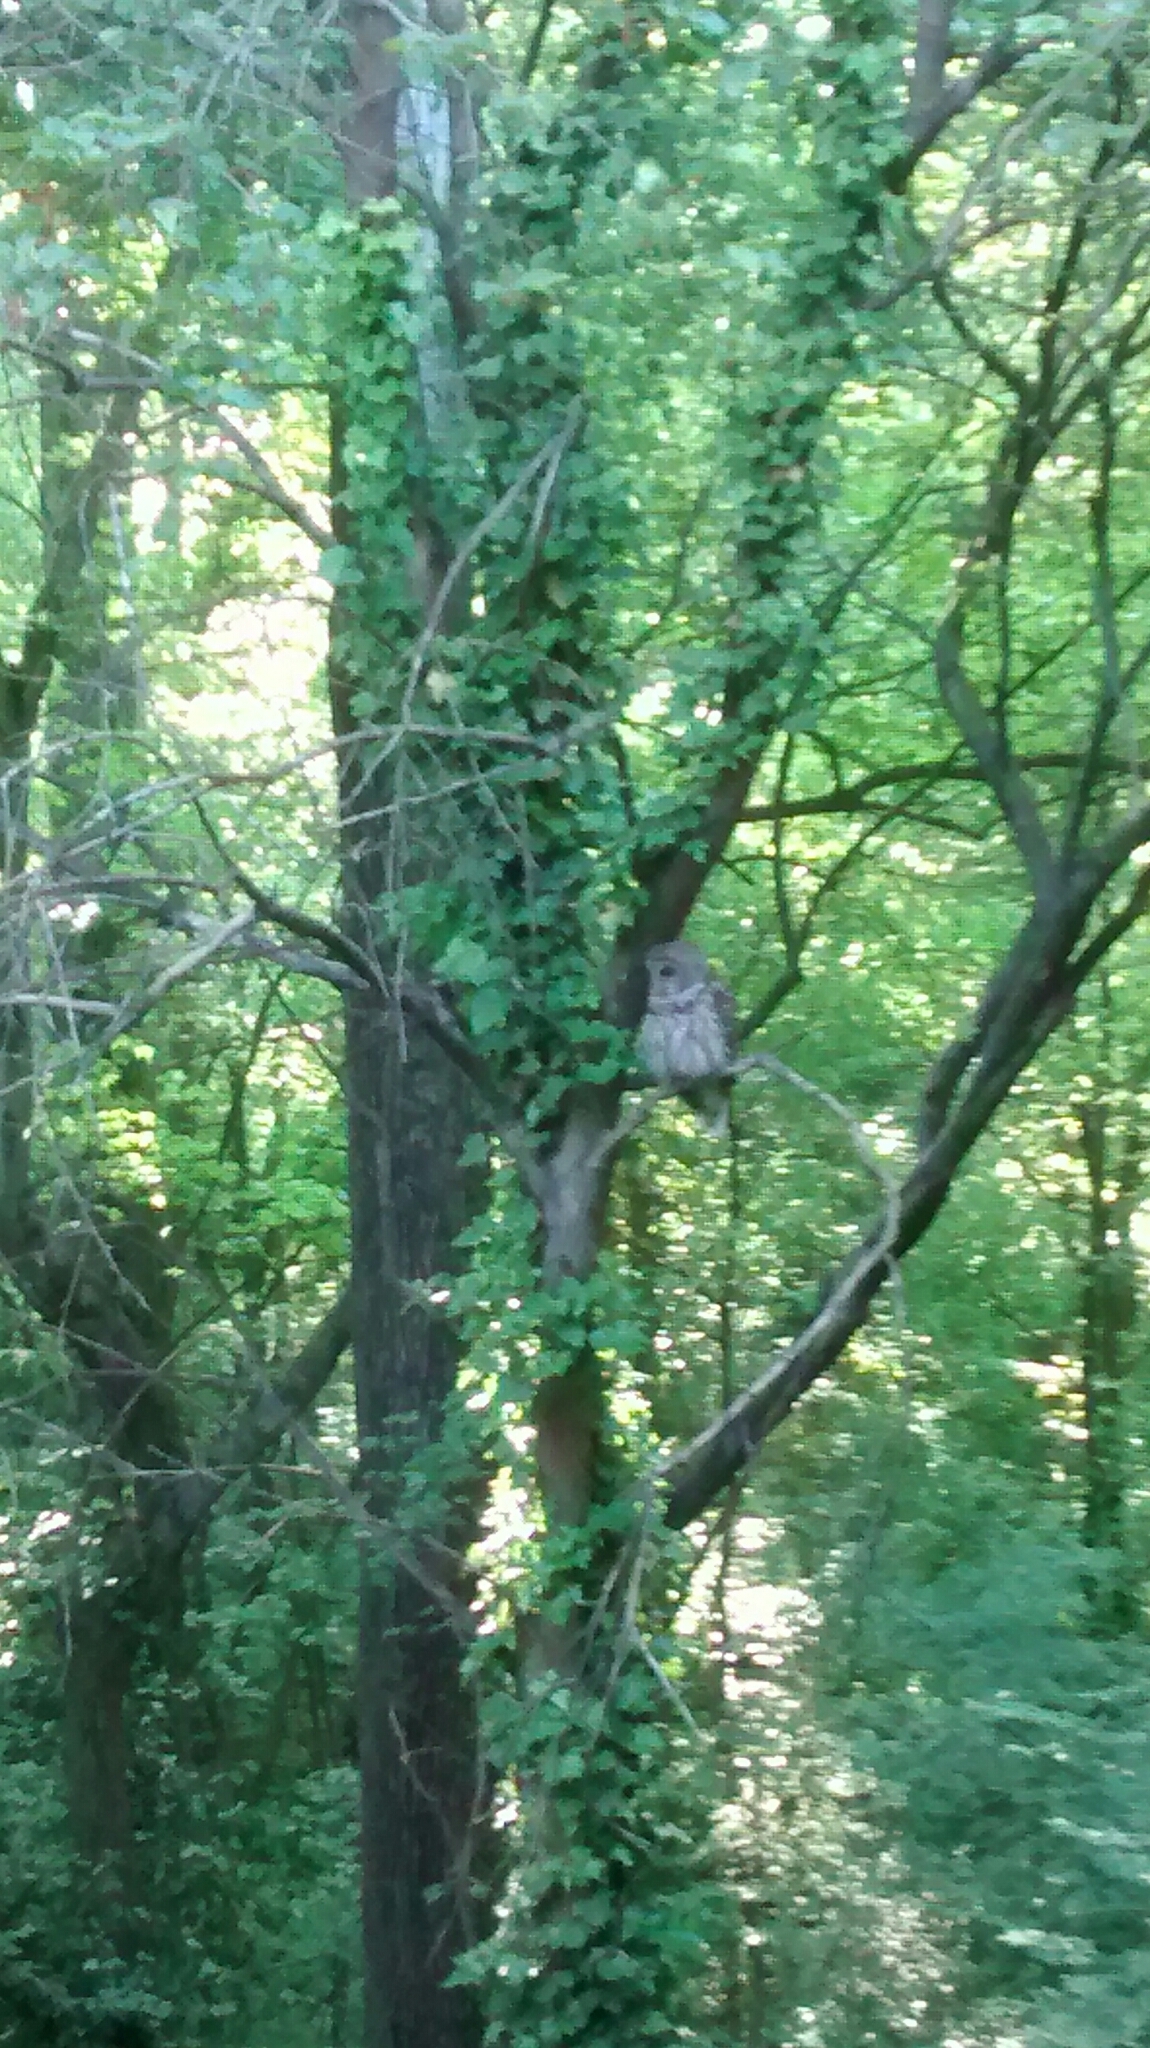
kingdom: Animalia
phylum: Chordata
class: Aves
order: Strigiformes
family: Strigidae
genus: Strix
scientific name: Strix varia
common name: Barred owl
